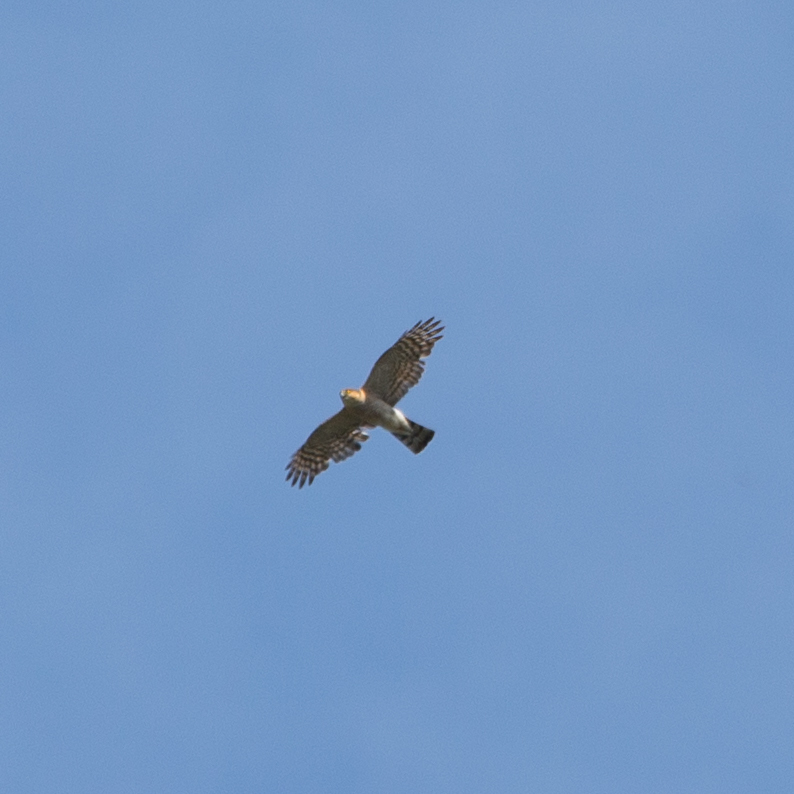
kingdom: Animalia
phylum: Chordata
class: Aves
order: Accipitriformes
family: Accipitridae
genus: Accipiter
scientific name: Accipiter nisus
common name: Eurasian sparrowhawk
